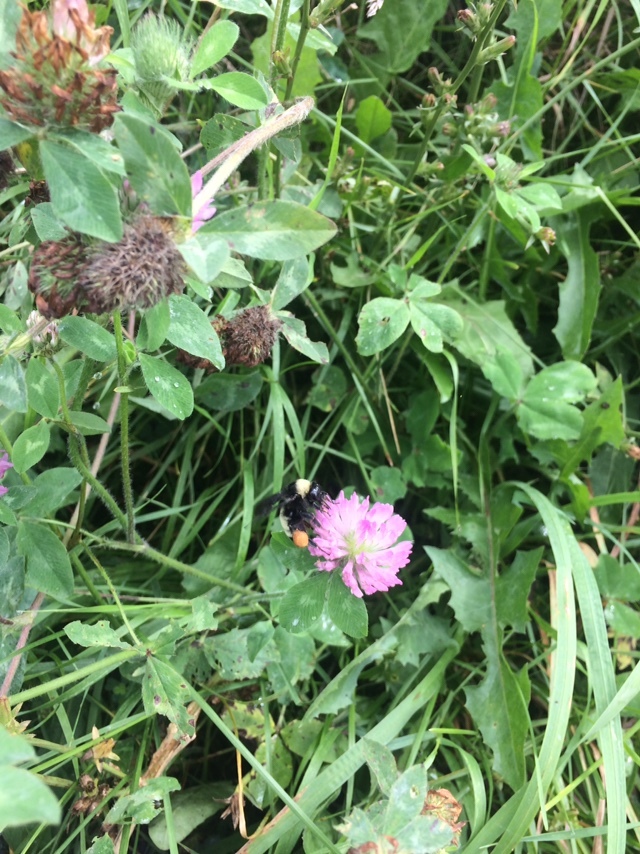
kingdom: Animalia
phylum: Arthropoda
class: Insecta
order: Hymenoptera
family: Apidae
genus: Bombus
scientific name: Bombus pensylvanicus
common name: Bumble bee
